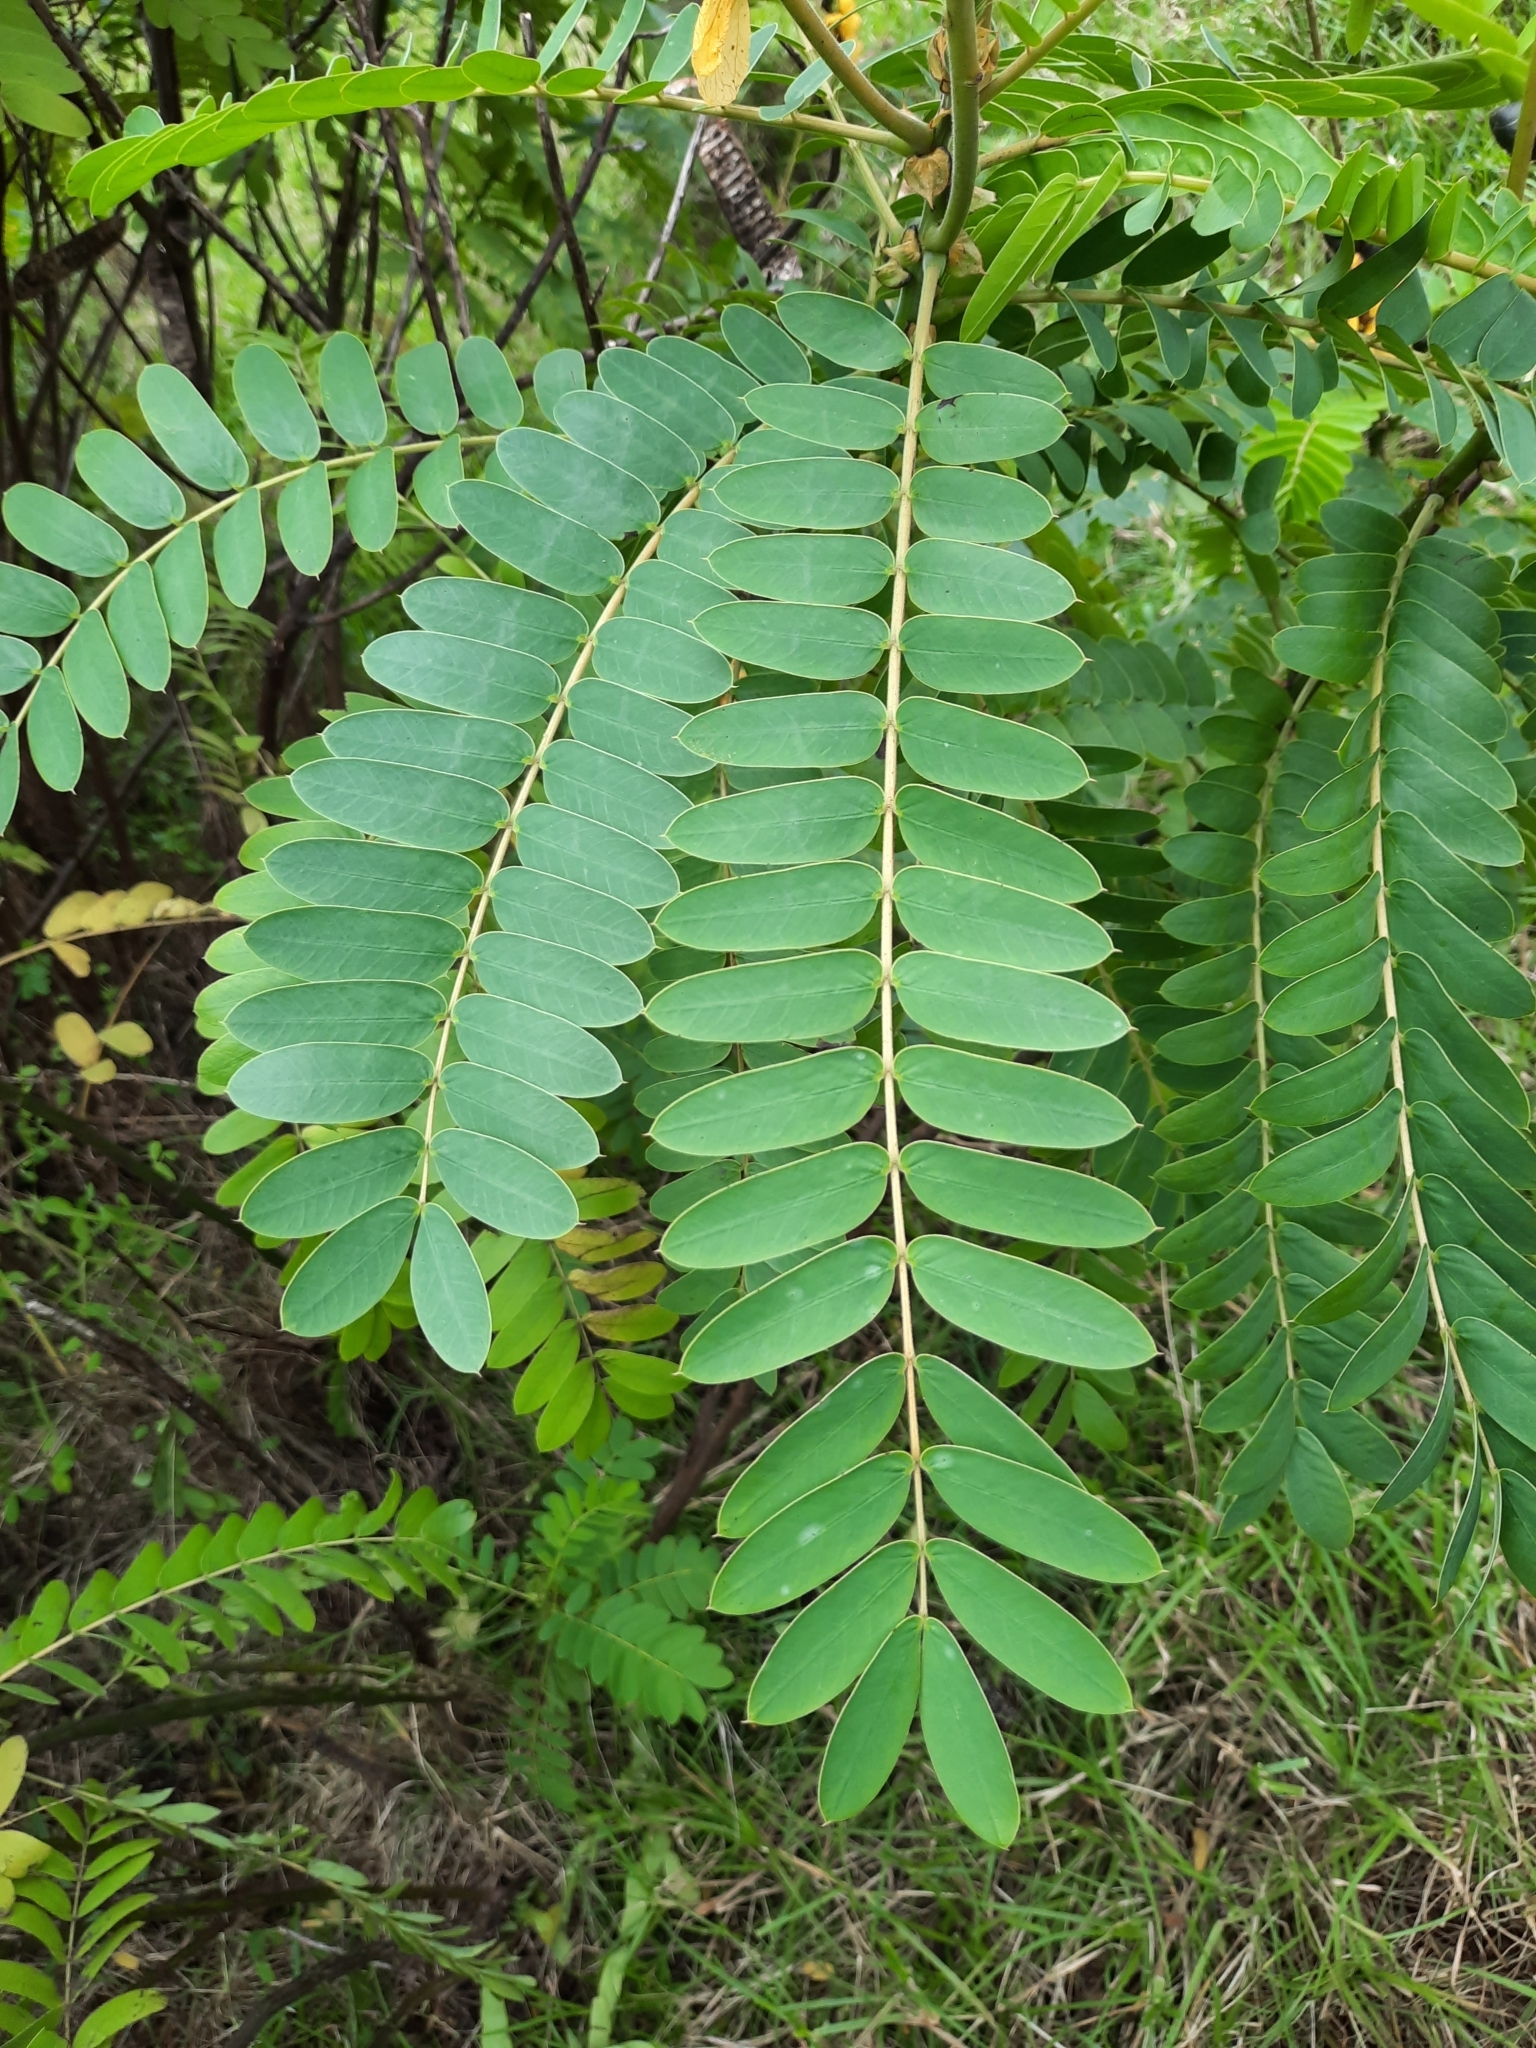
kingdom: Plantae
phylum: Tracheophyta
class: Magnoliopsida
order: Fabales
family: Fabaceae
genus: Senna
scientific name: Senna didymobotrya
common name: African senna
